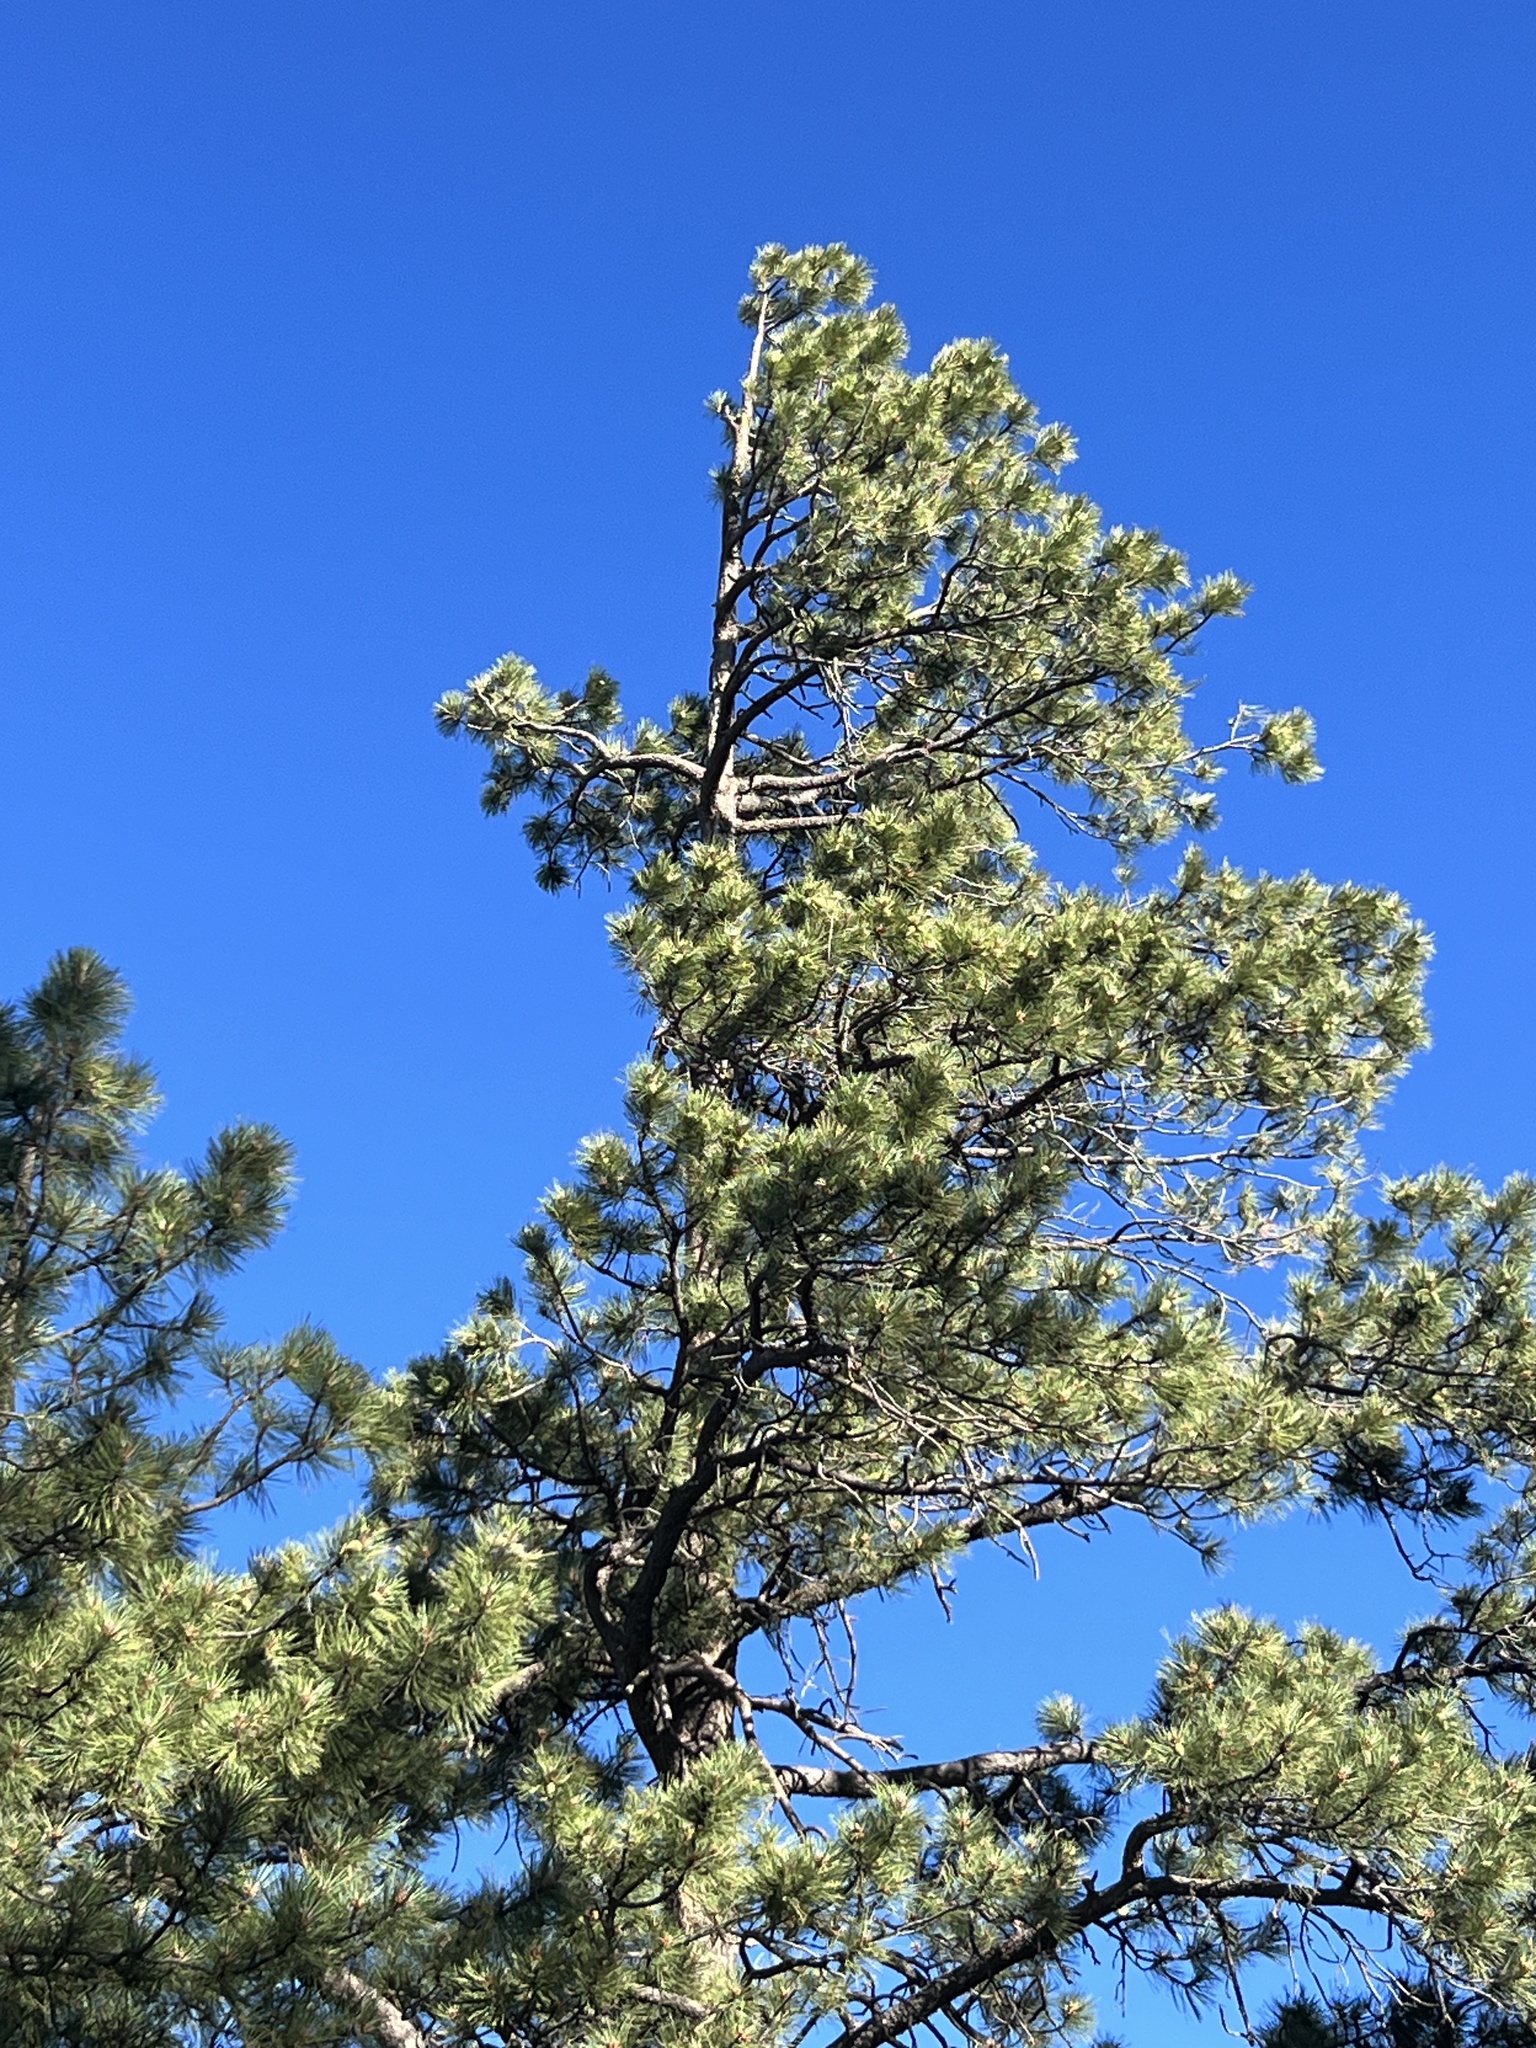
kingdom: Plantae
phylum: Tracheophyta
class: Pinopsida
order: Pinales
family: Pinaceae
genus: Pinus
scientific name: Pinus ponderosa
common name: Western yellow-pine
